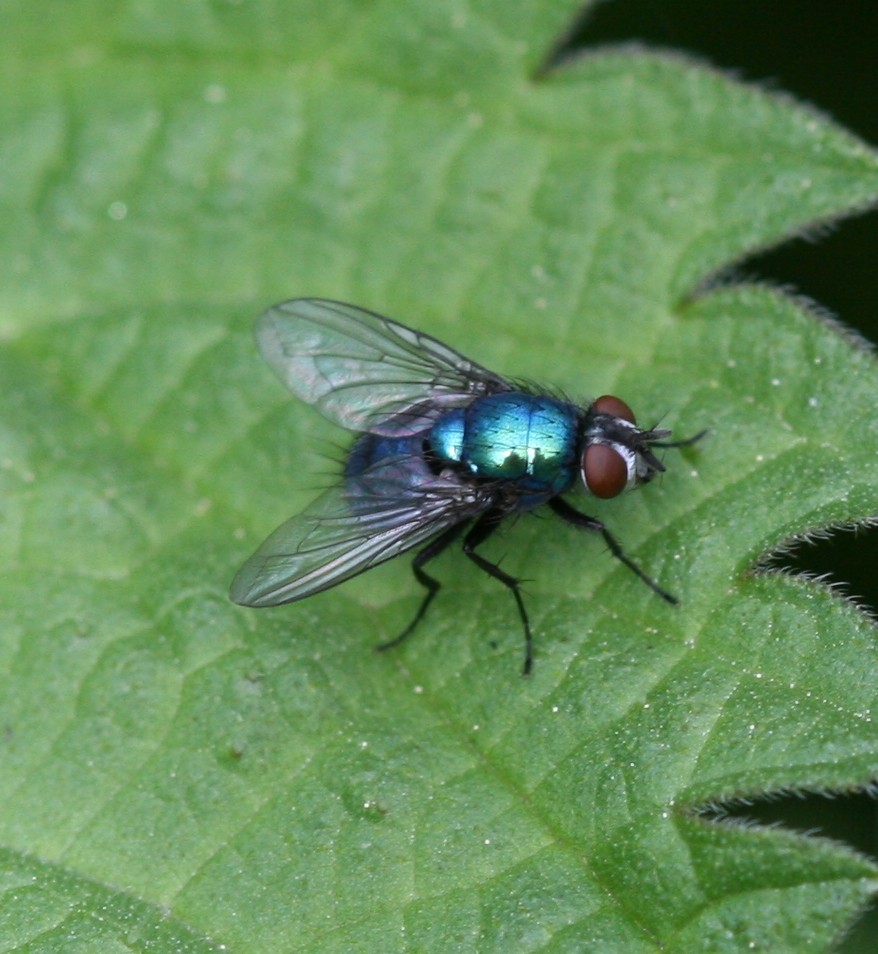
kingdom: Animalia
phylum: Arthropoda
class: Insecta
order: Diptera
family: Calliphoridae
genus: Lucilia
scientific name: Lucilia
